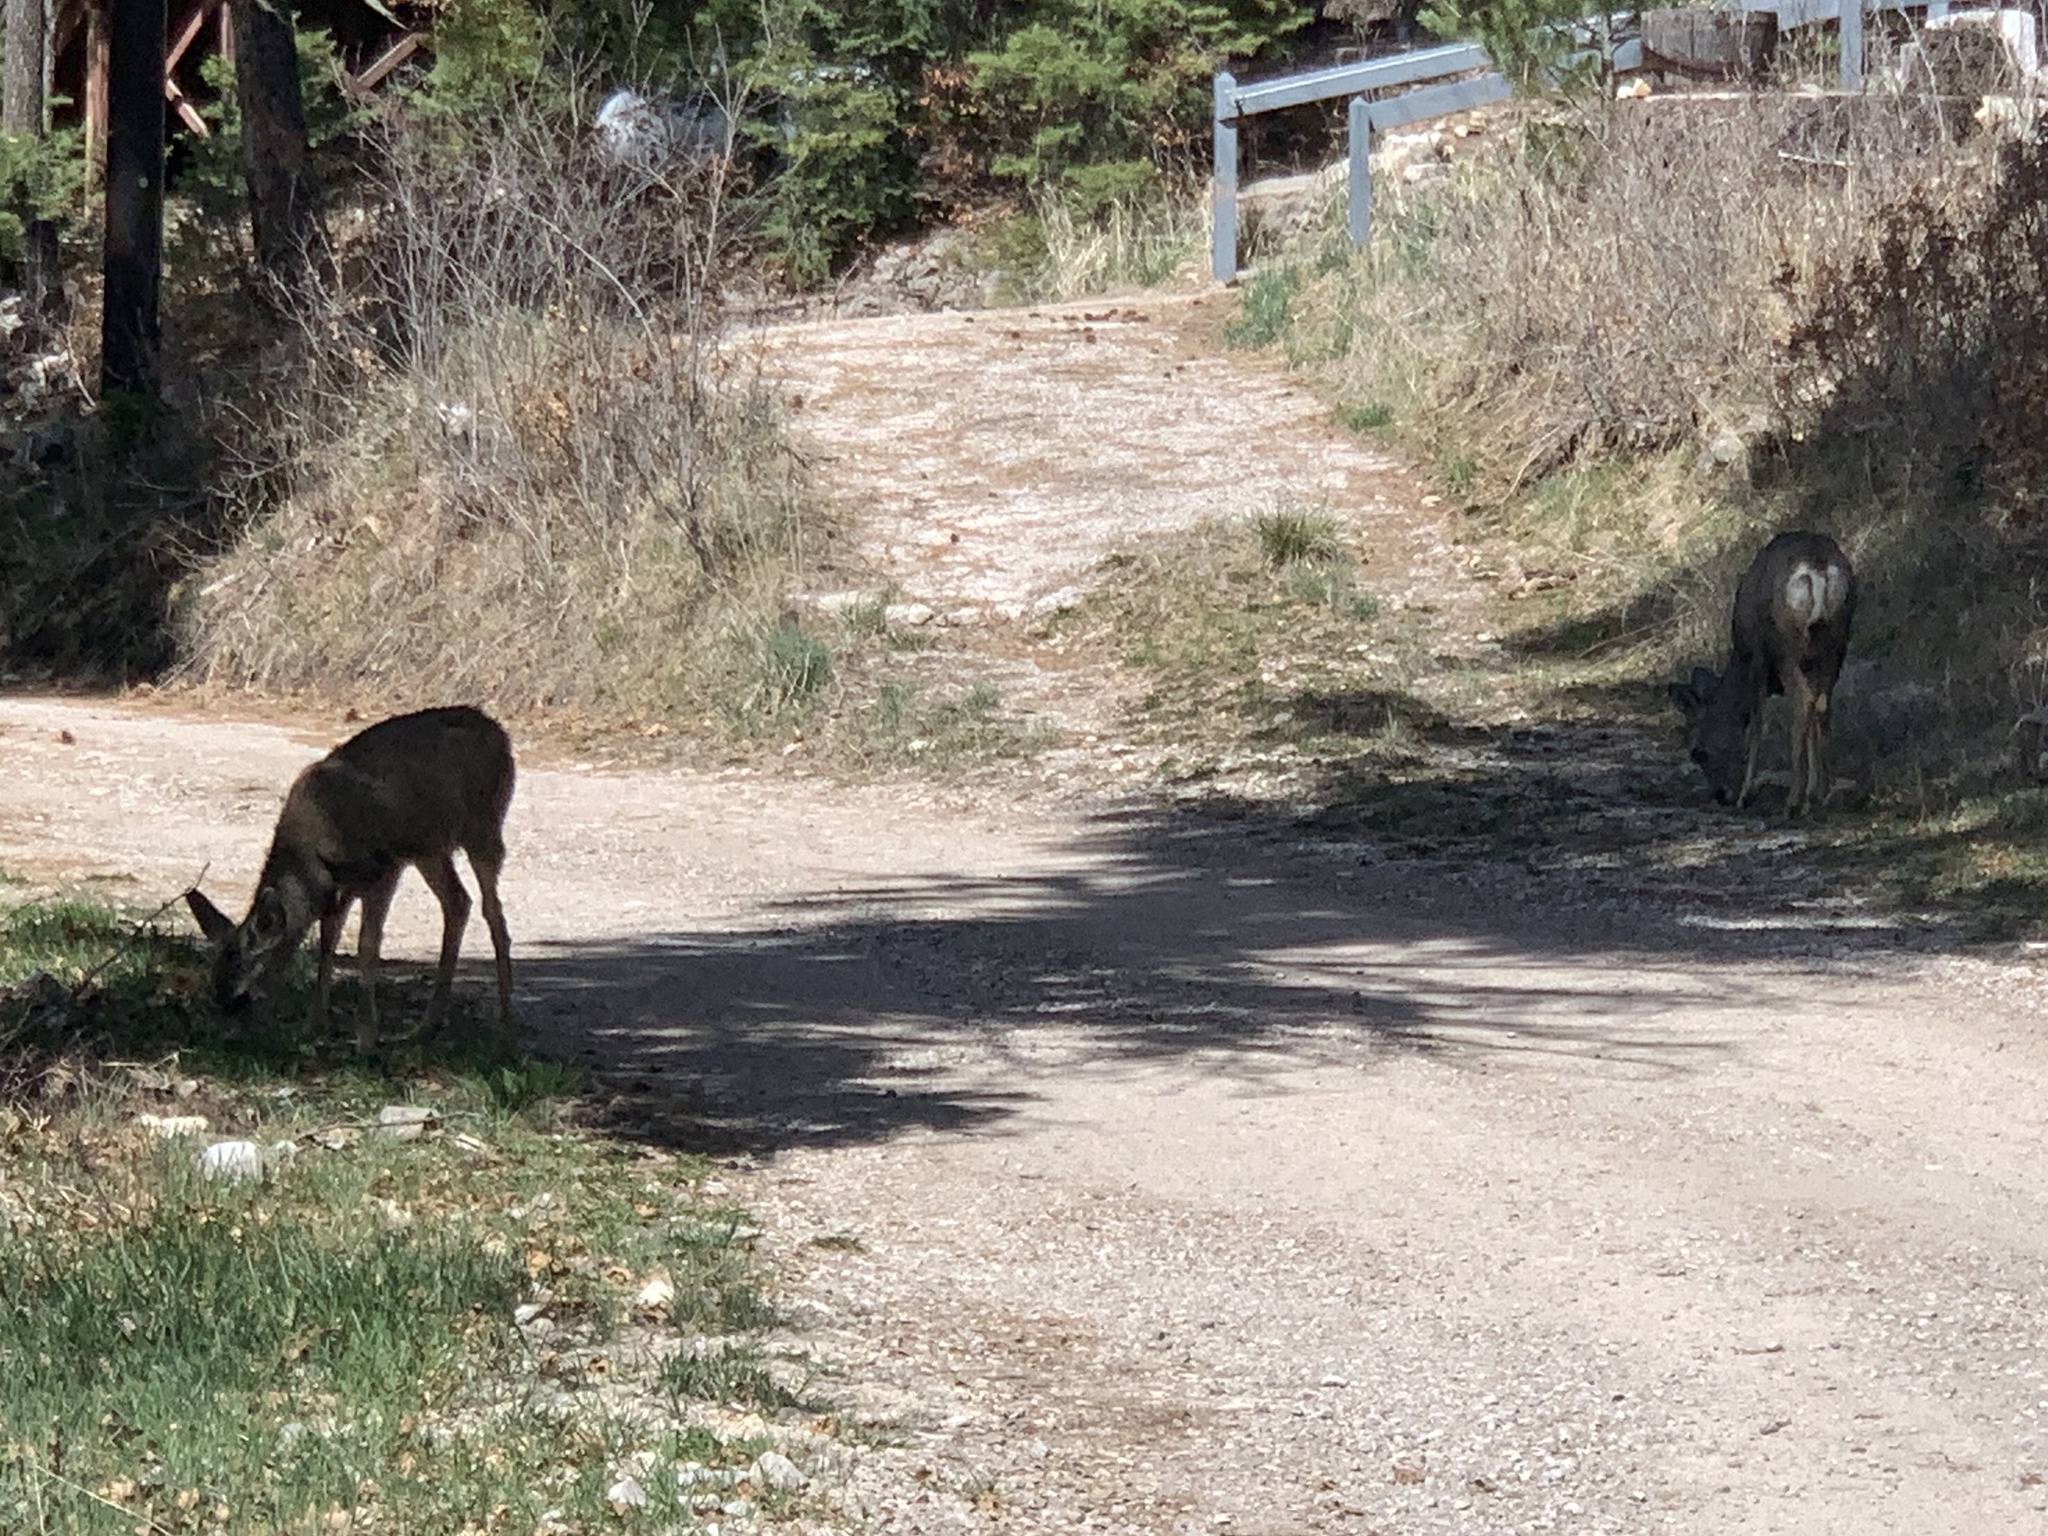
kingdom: Animalia
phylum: Chordata
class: Mammalia
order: Artiodactyla
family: Cervidae
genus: Odocoileus
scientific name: Odocoileus hemionus
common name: Mule deer
